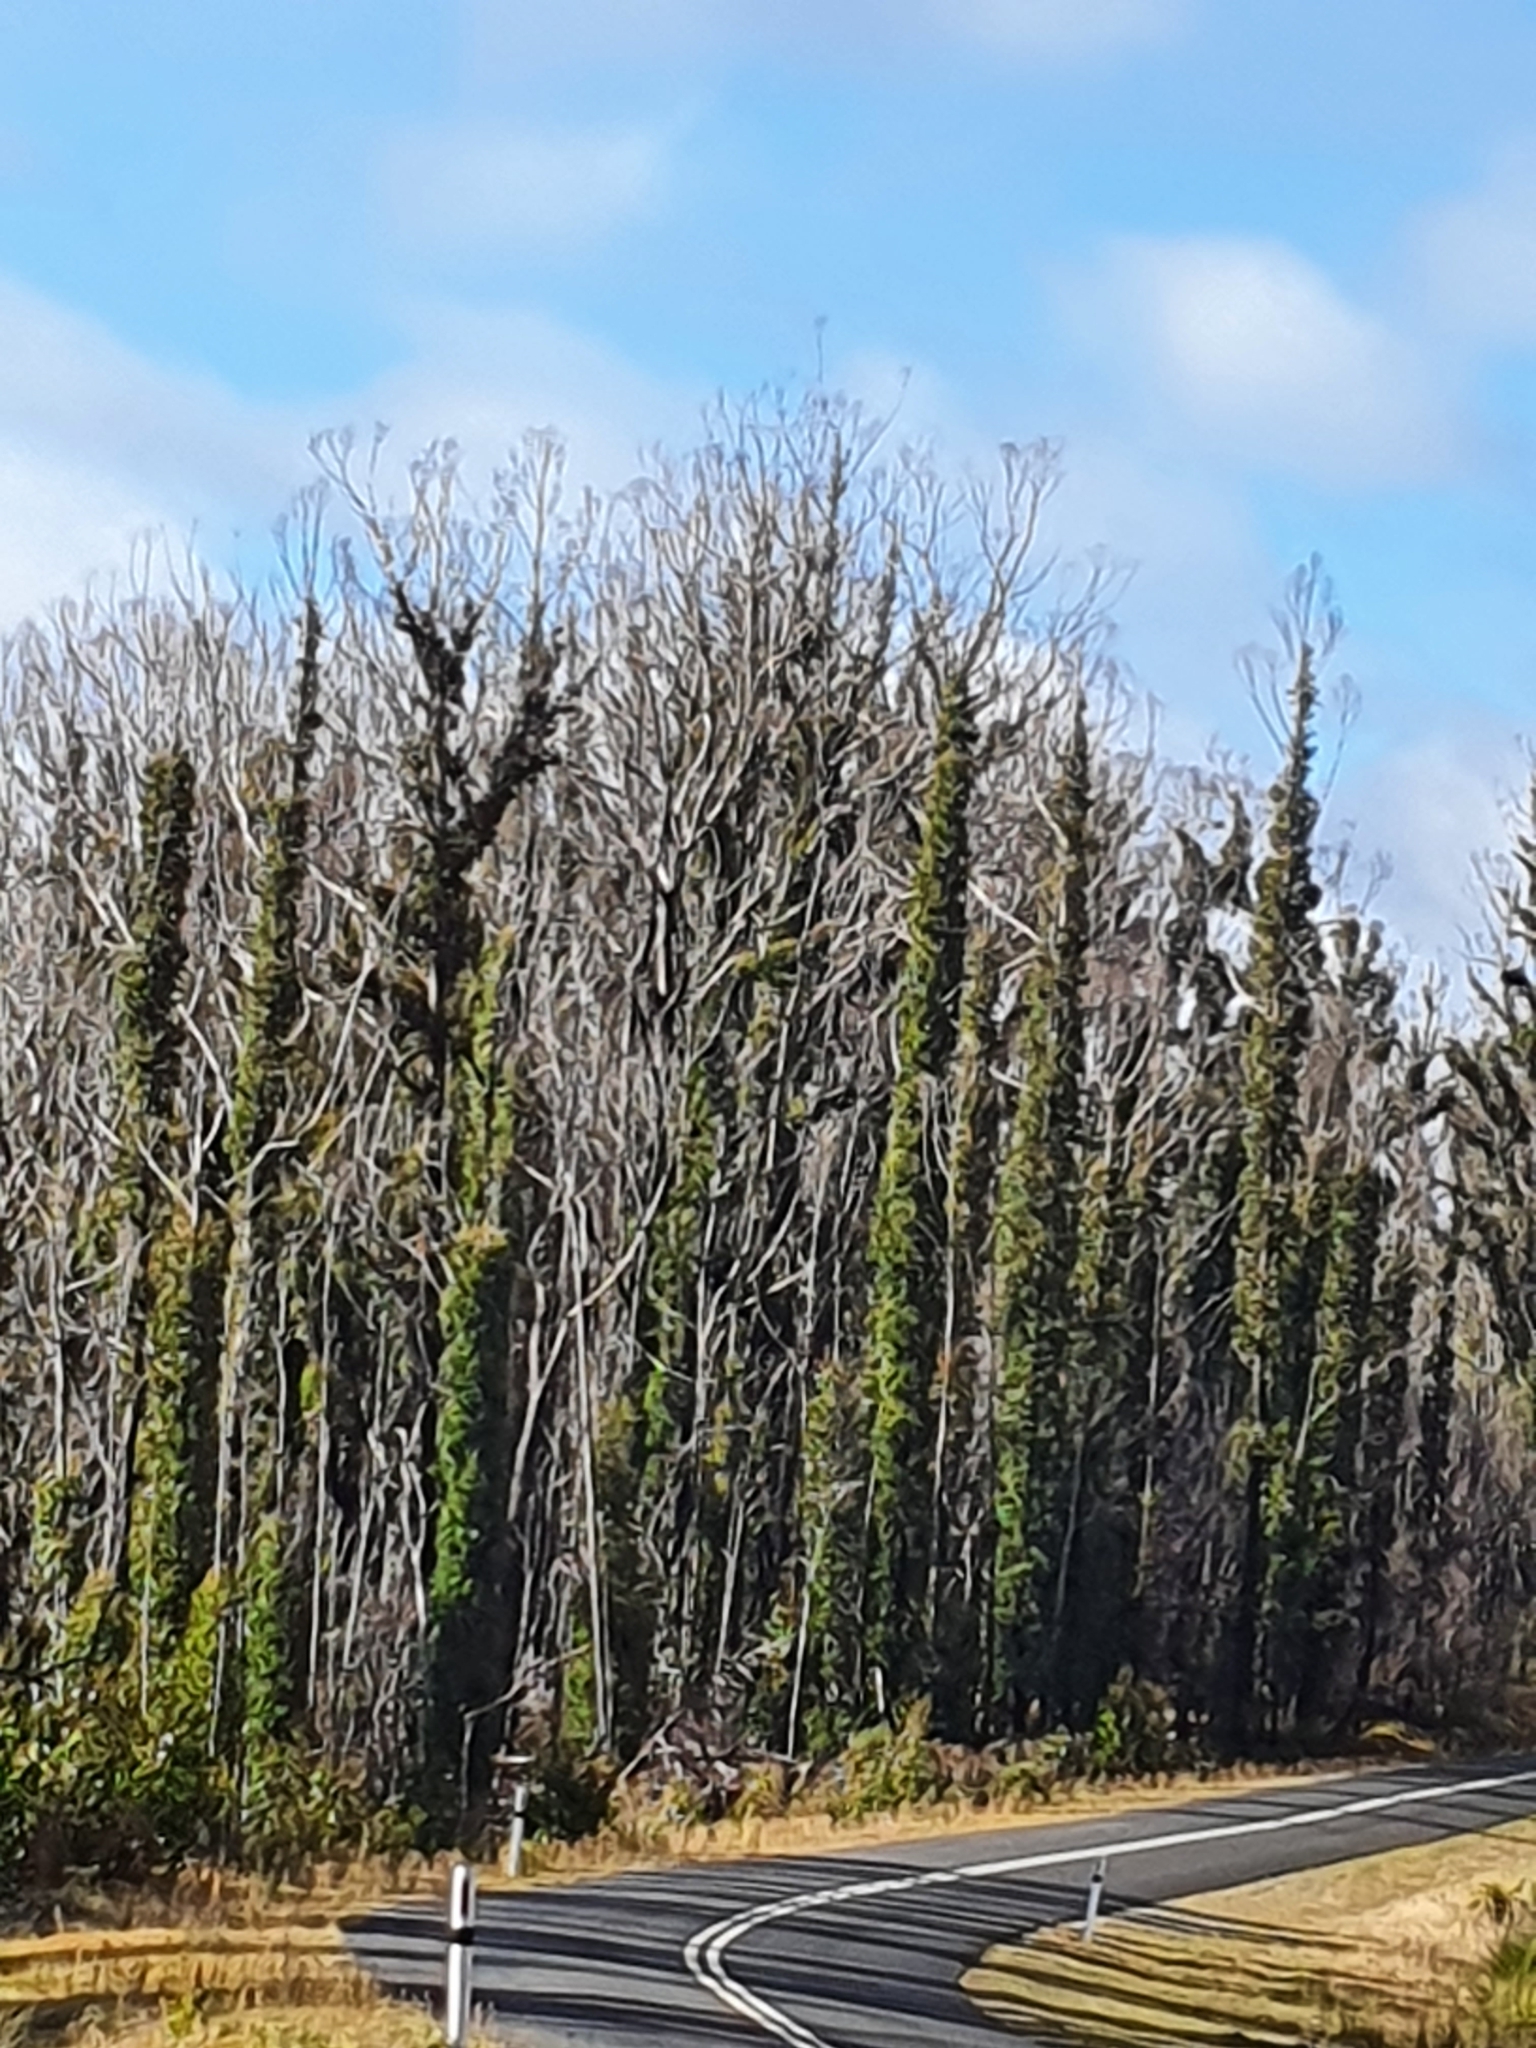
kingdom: Plantae
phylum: Tracheophyta
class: Magnoliopsida
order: Myrtales
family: Myrtaceae
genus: Eucalyptus
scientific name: Eucalyptus obliqua
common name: Messmate stringybark
